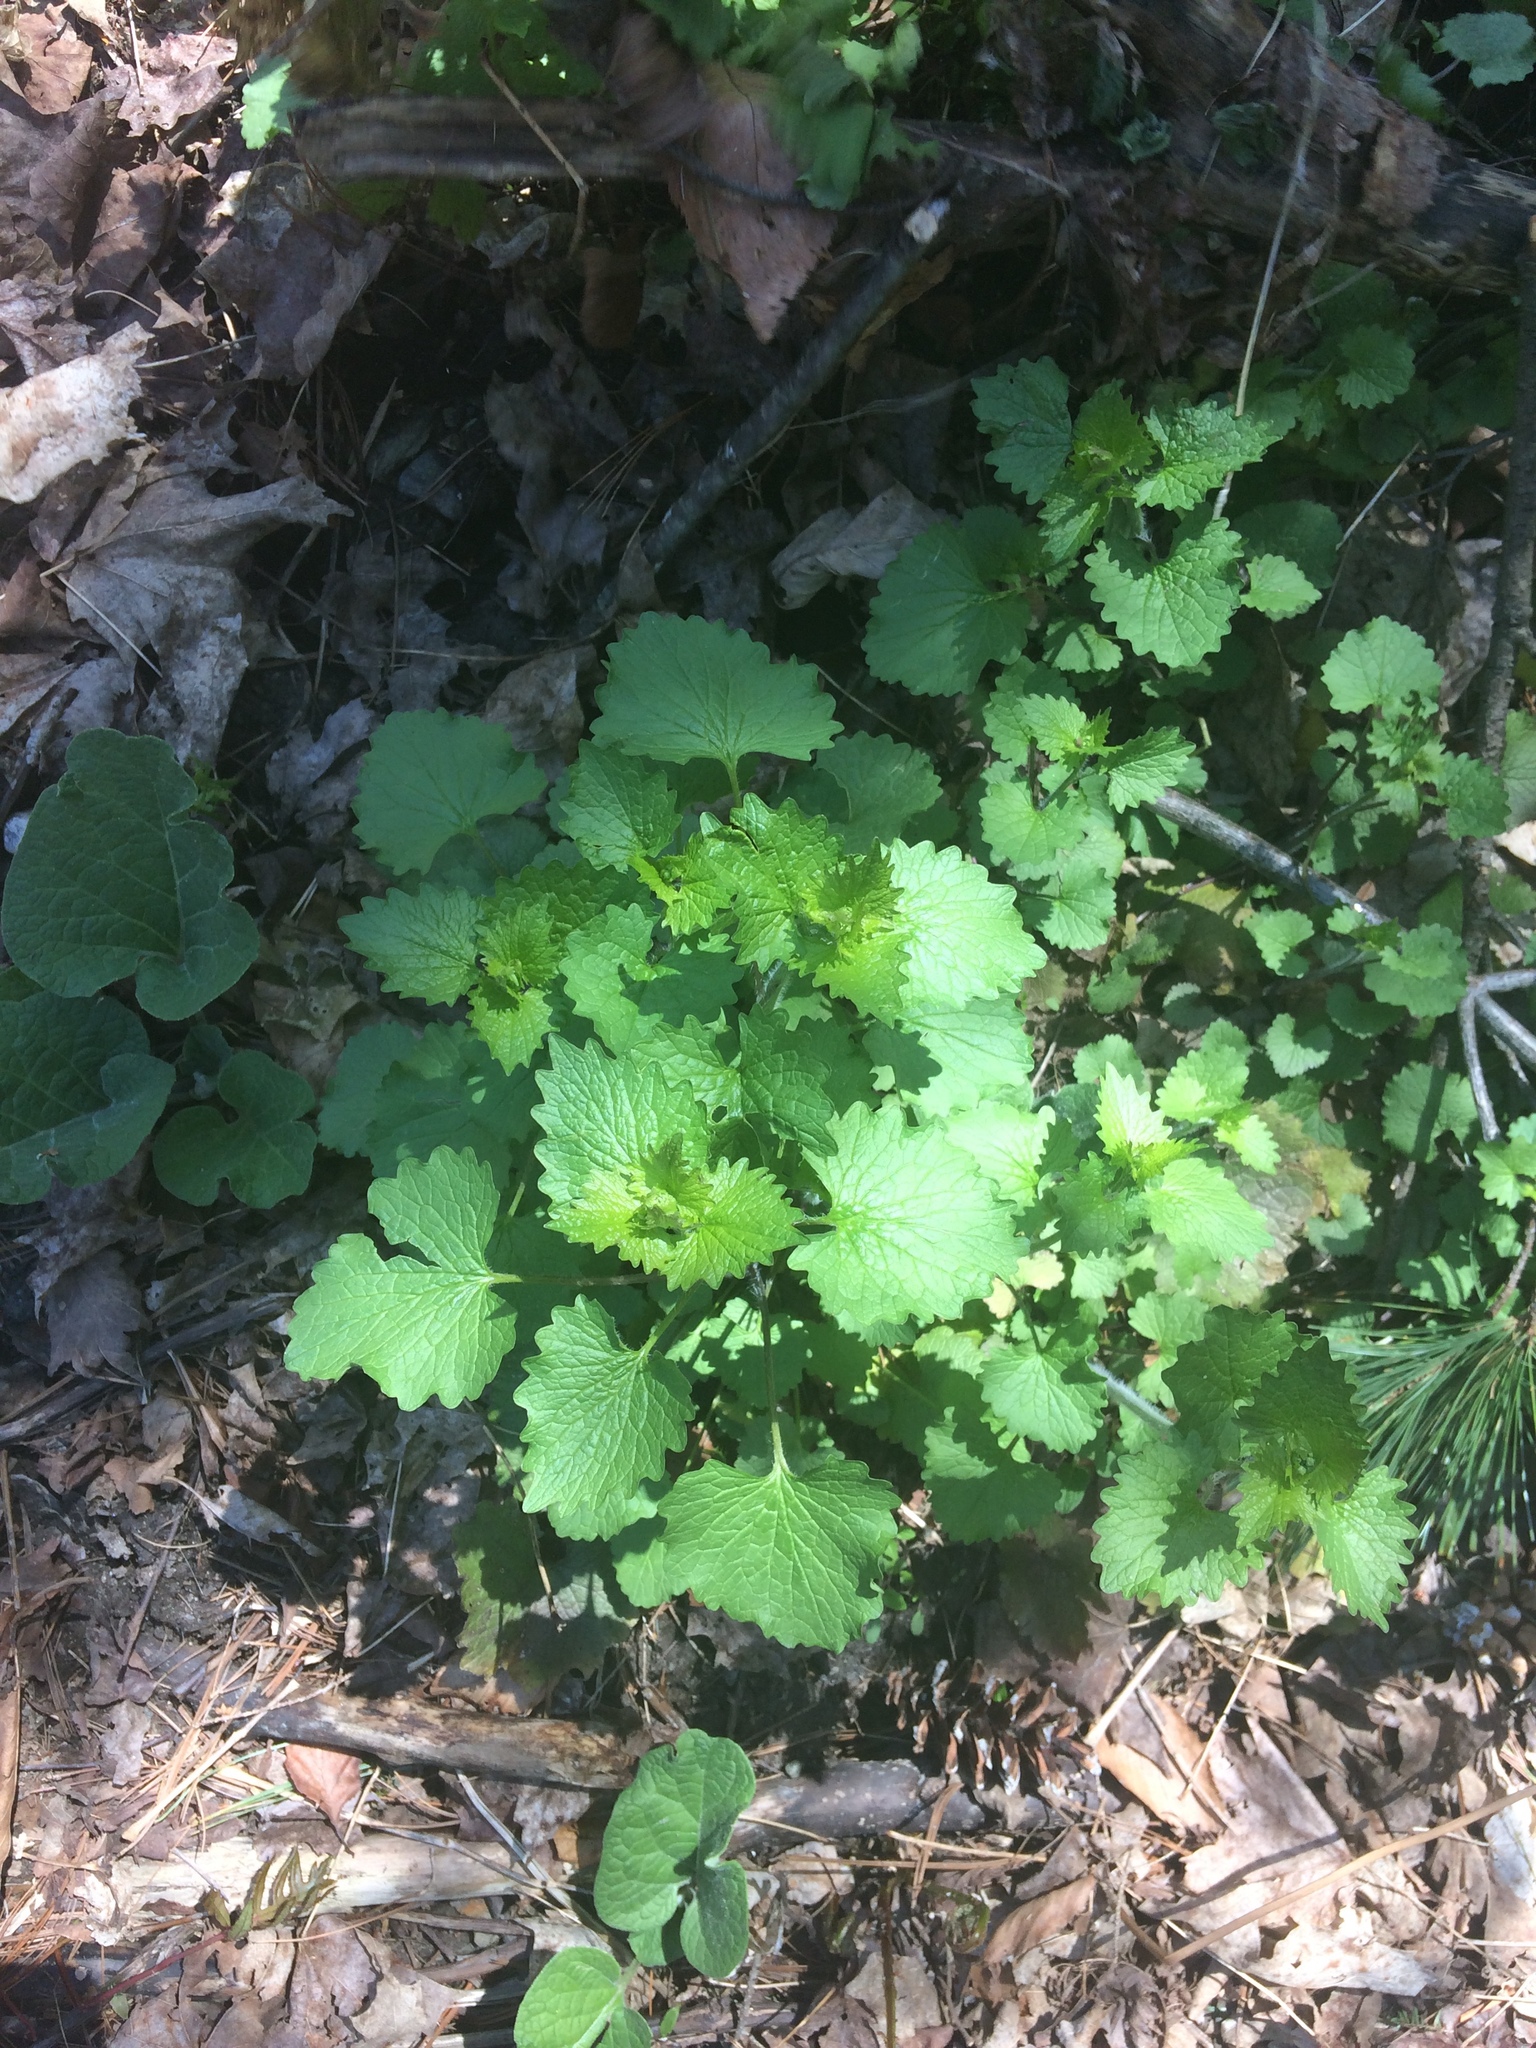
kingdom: Plantae
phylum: Tracheophyta
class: Magnoliopsida
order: Brassicales
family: Brassicaceae
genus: Alliaria
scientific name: Alliaria petiolata
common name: Garlic mustard
